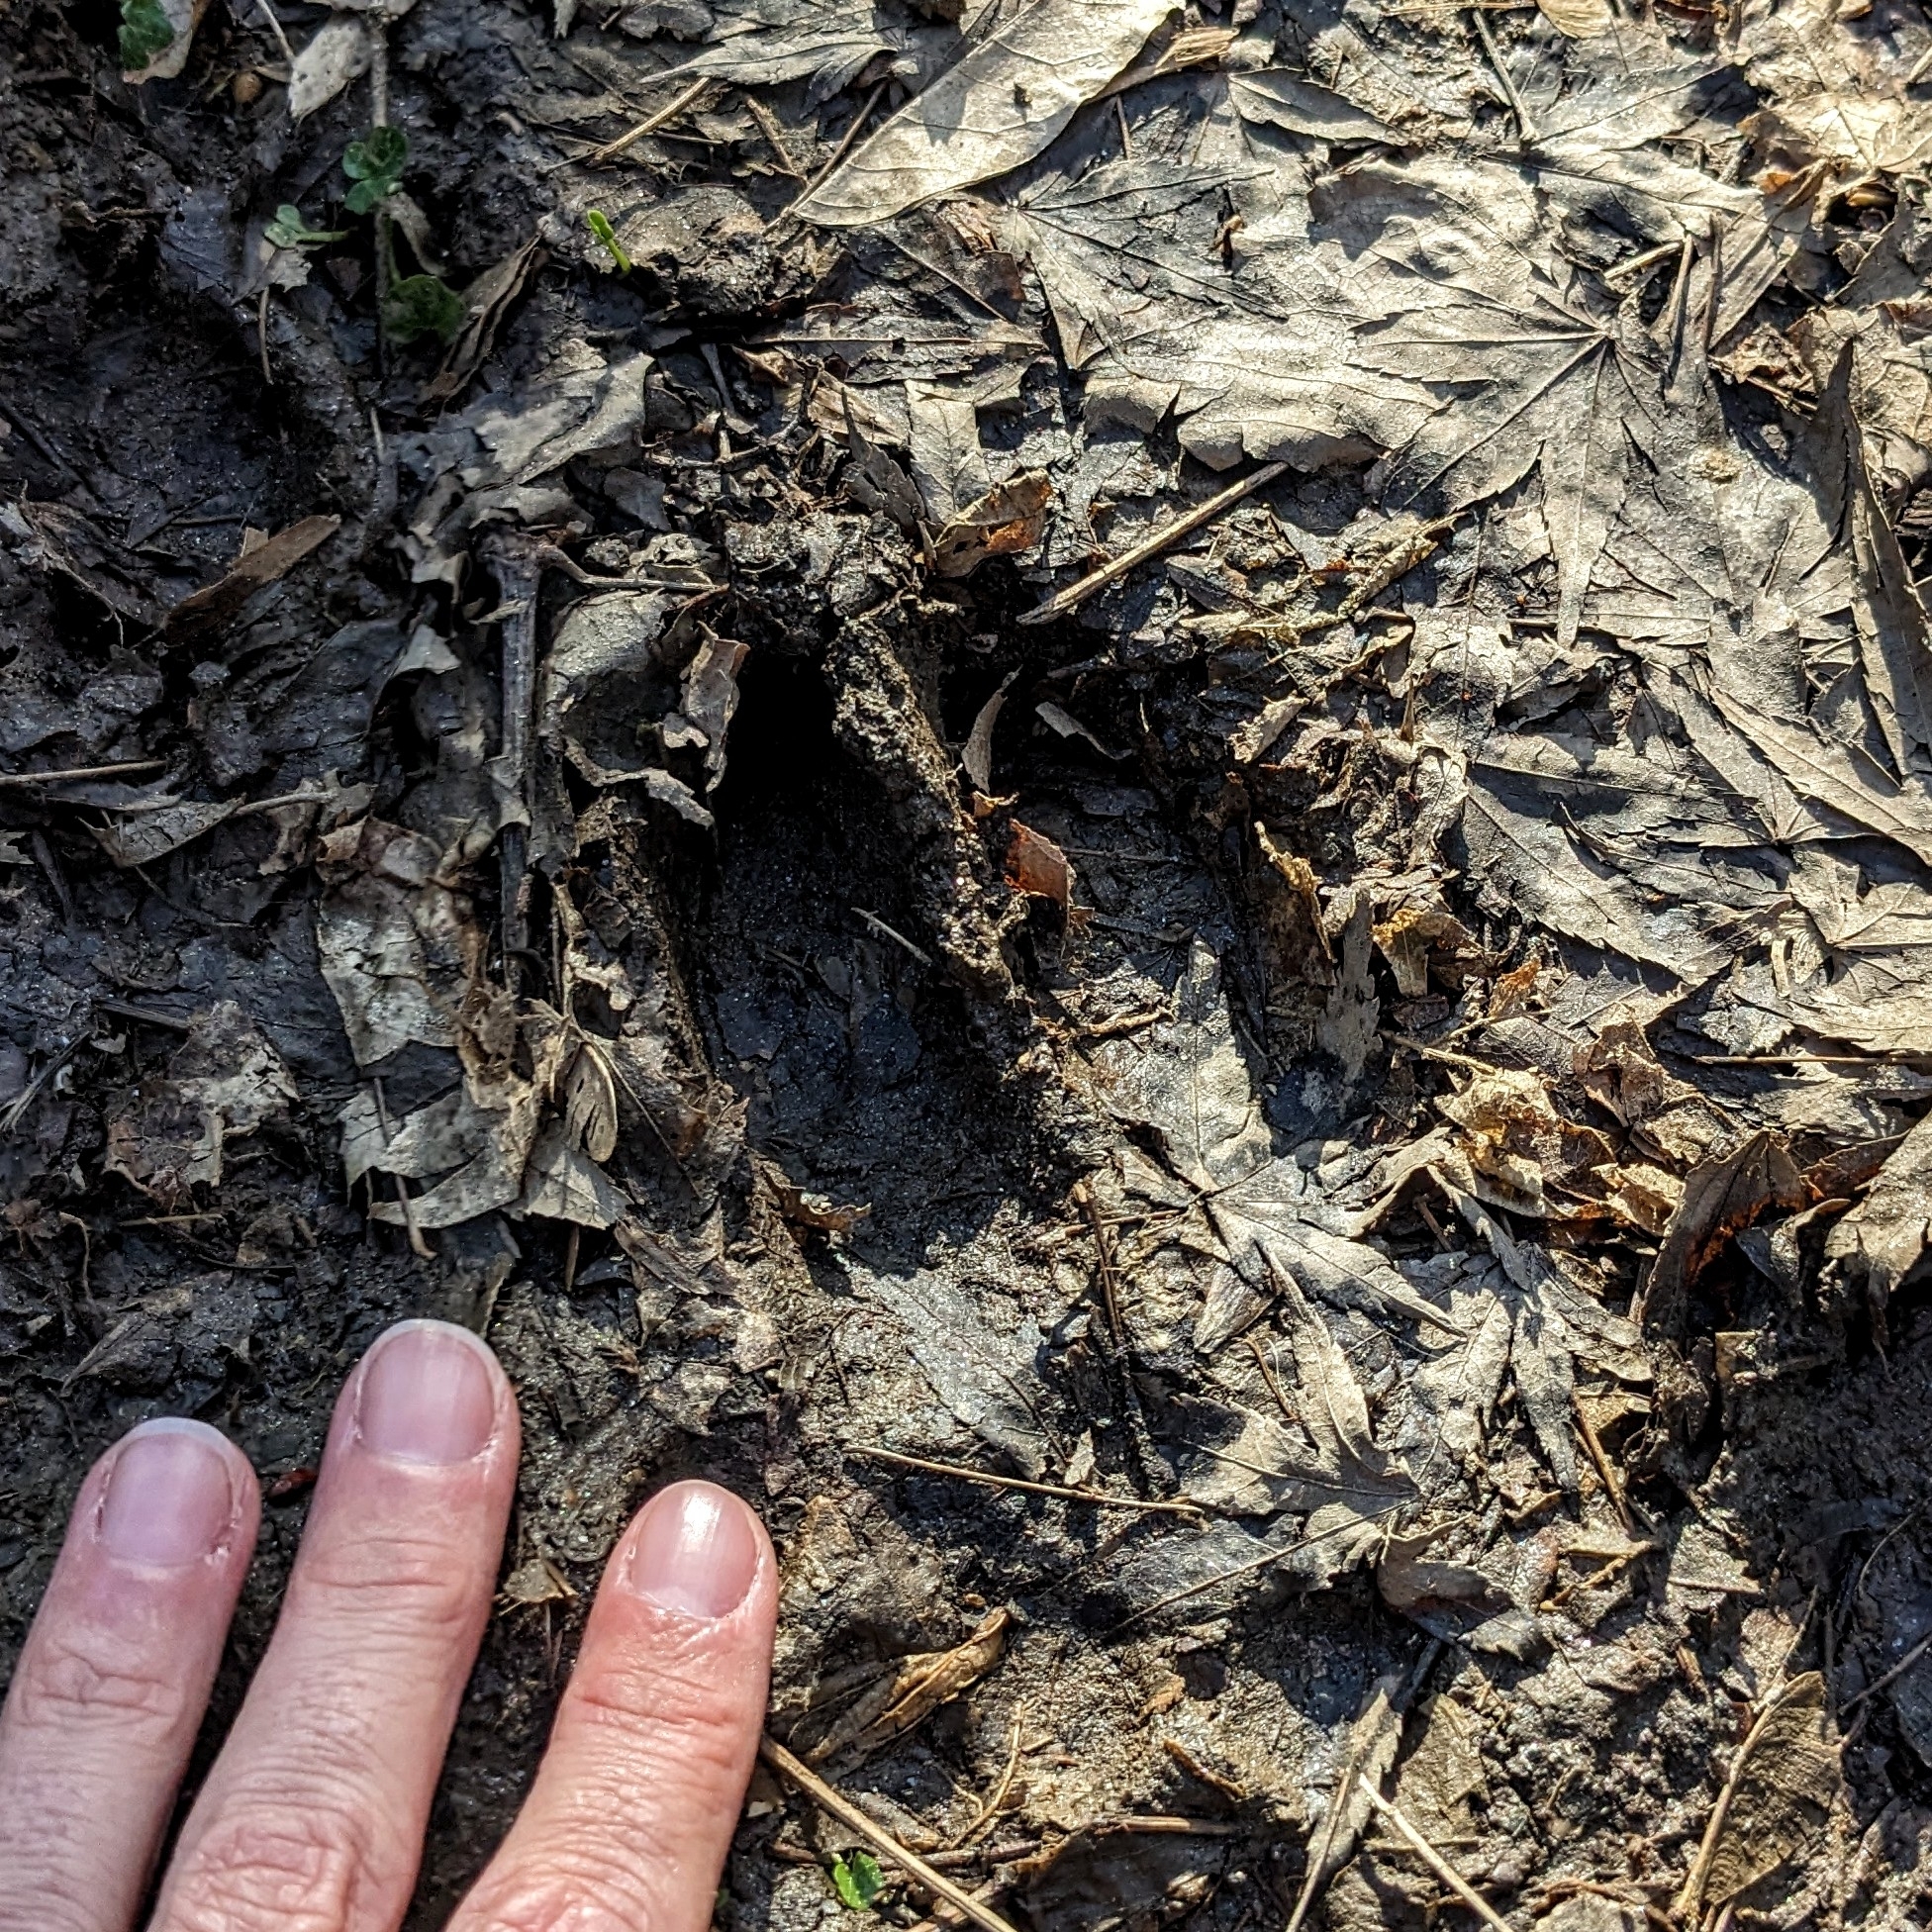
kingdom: Animalia
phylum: Chordata
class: Mammalia
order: Artiodactyla
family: Cervidae
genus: Odocoileus
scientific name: Odocoileus virginianus
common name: White-tailed deer
